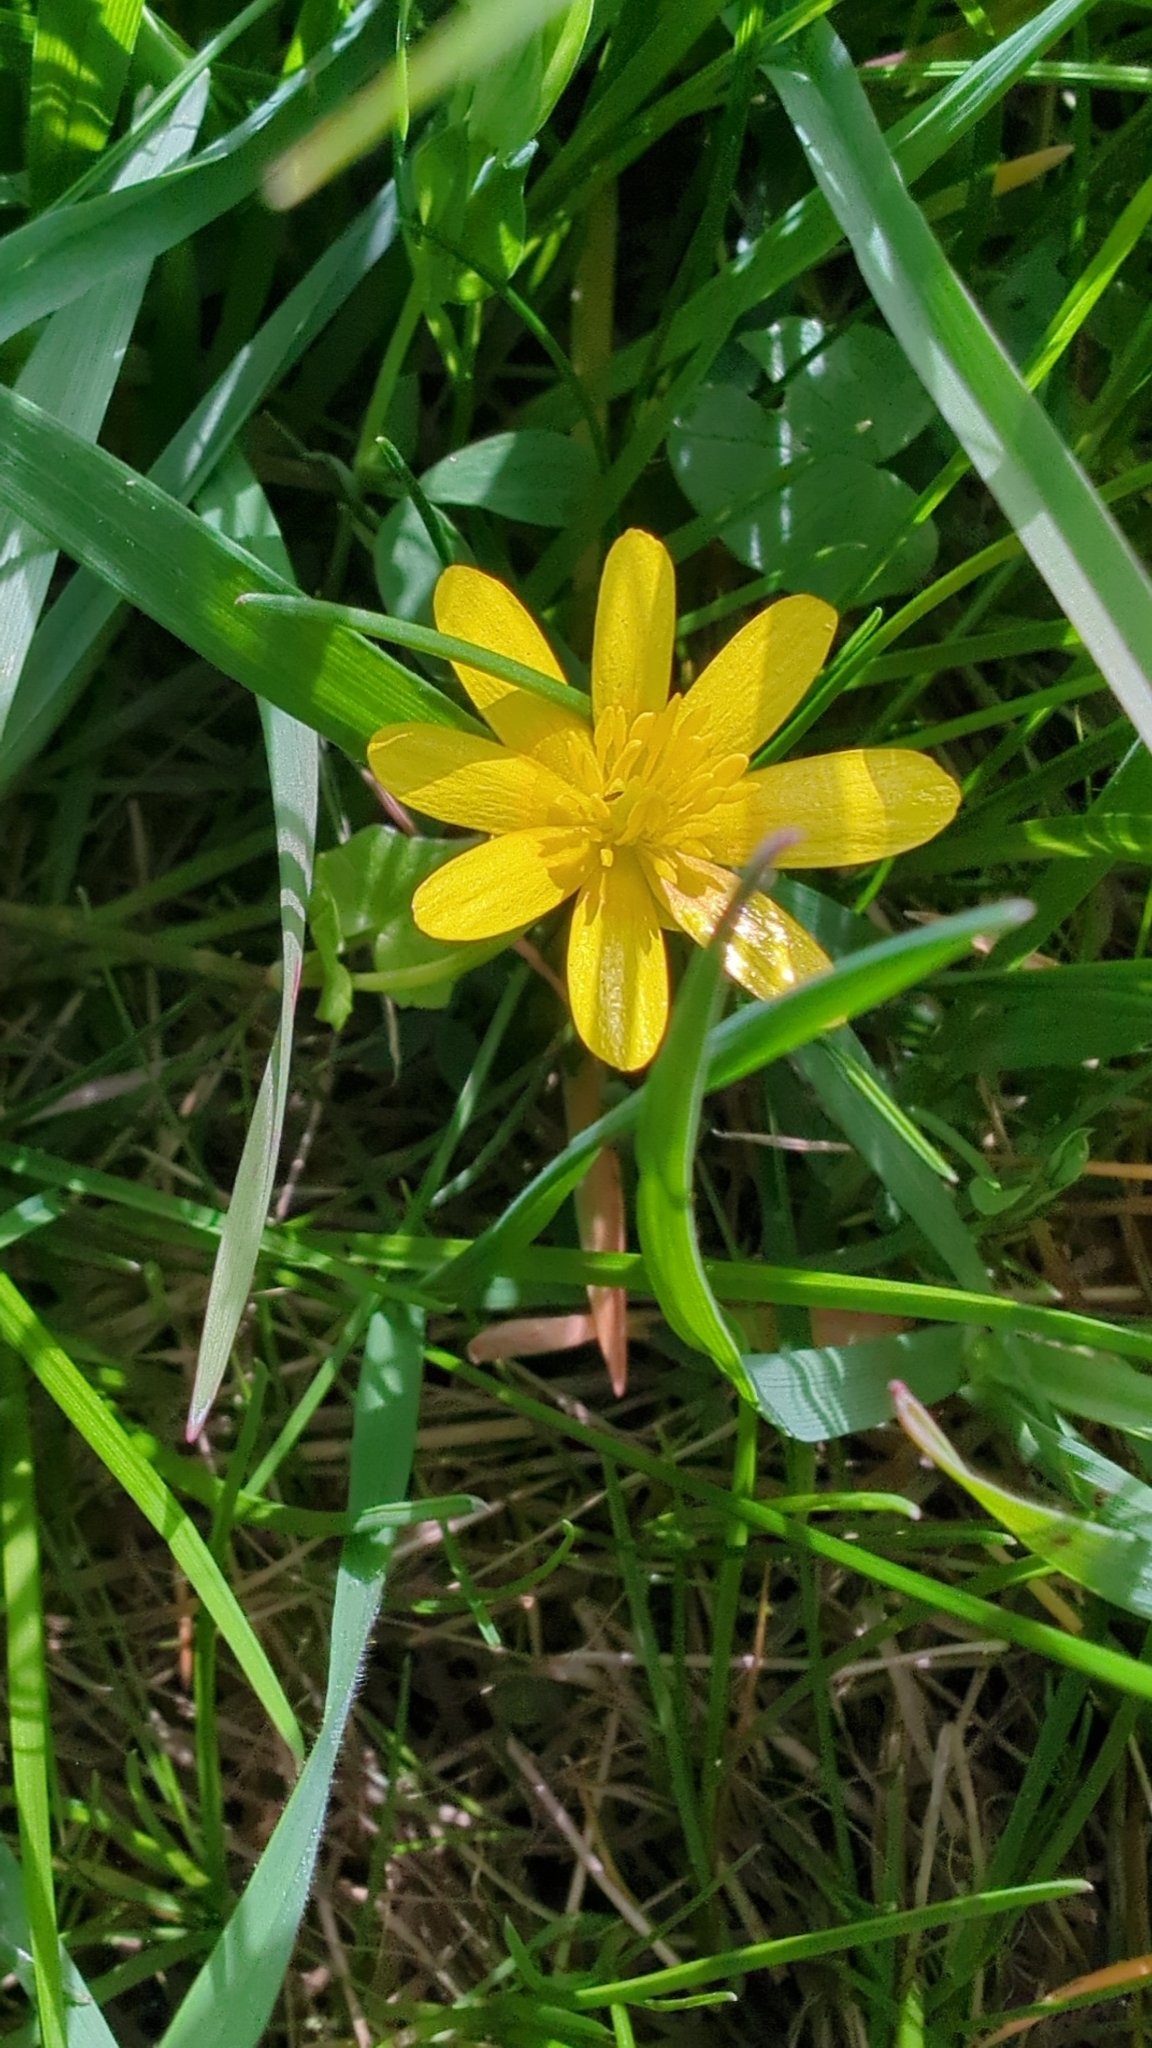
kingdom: Plantae
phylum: Tracheophyta
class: Magnoliopsida
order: Ranunculales
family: Ranunculaceae
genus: Ficaria
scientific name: Ficaria verna
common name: Lesser celandine
